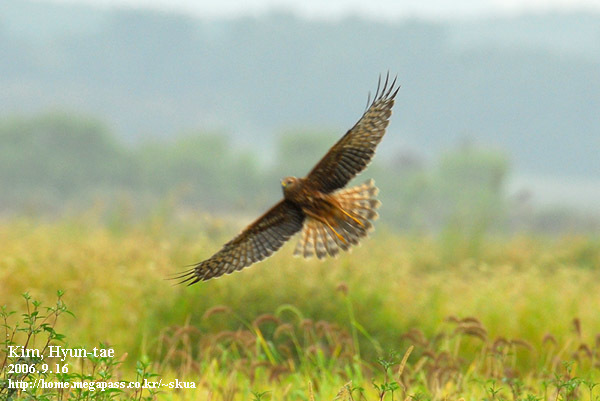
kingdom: Animalia
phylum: Chordata
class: Aves
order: Accipitriformes
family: Accipitridae
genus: Circus
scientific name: Circus melanoleucos
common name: Pied harrier
